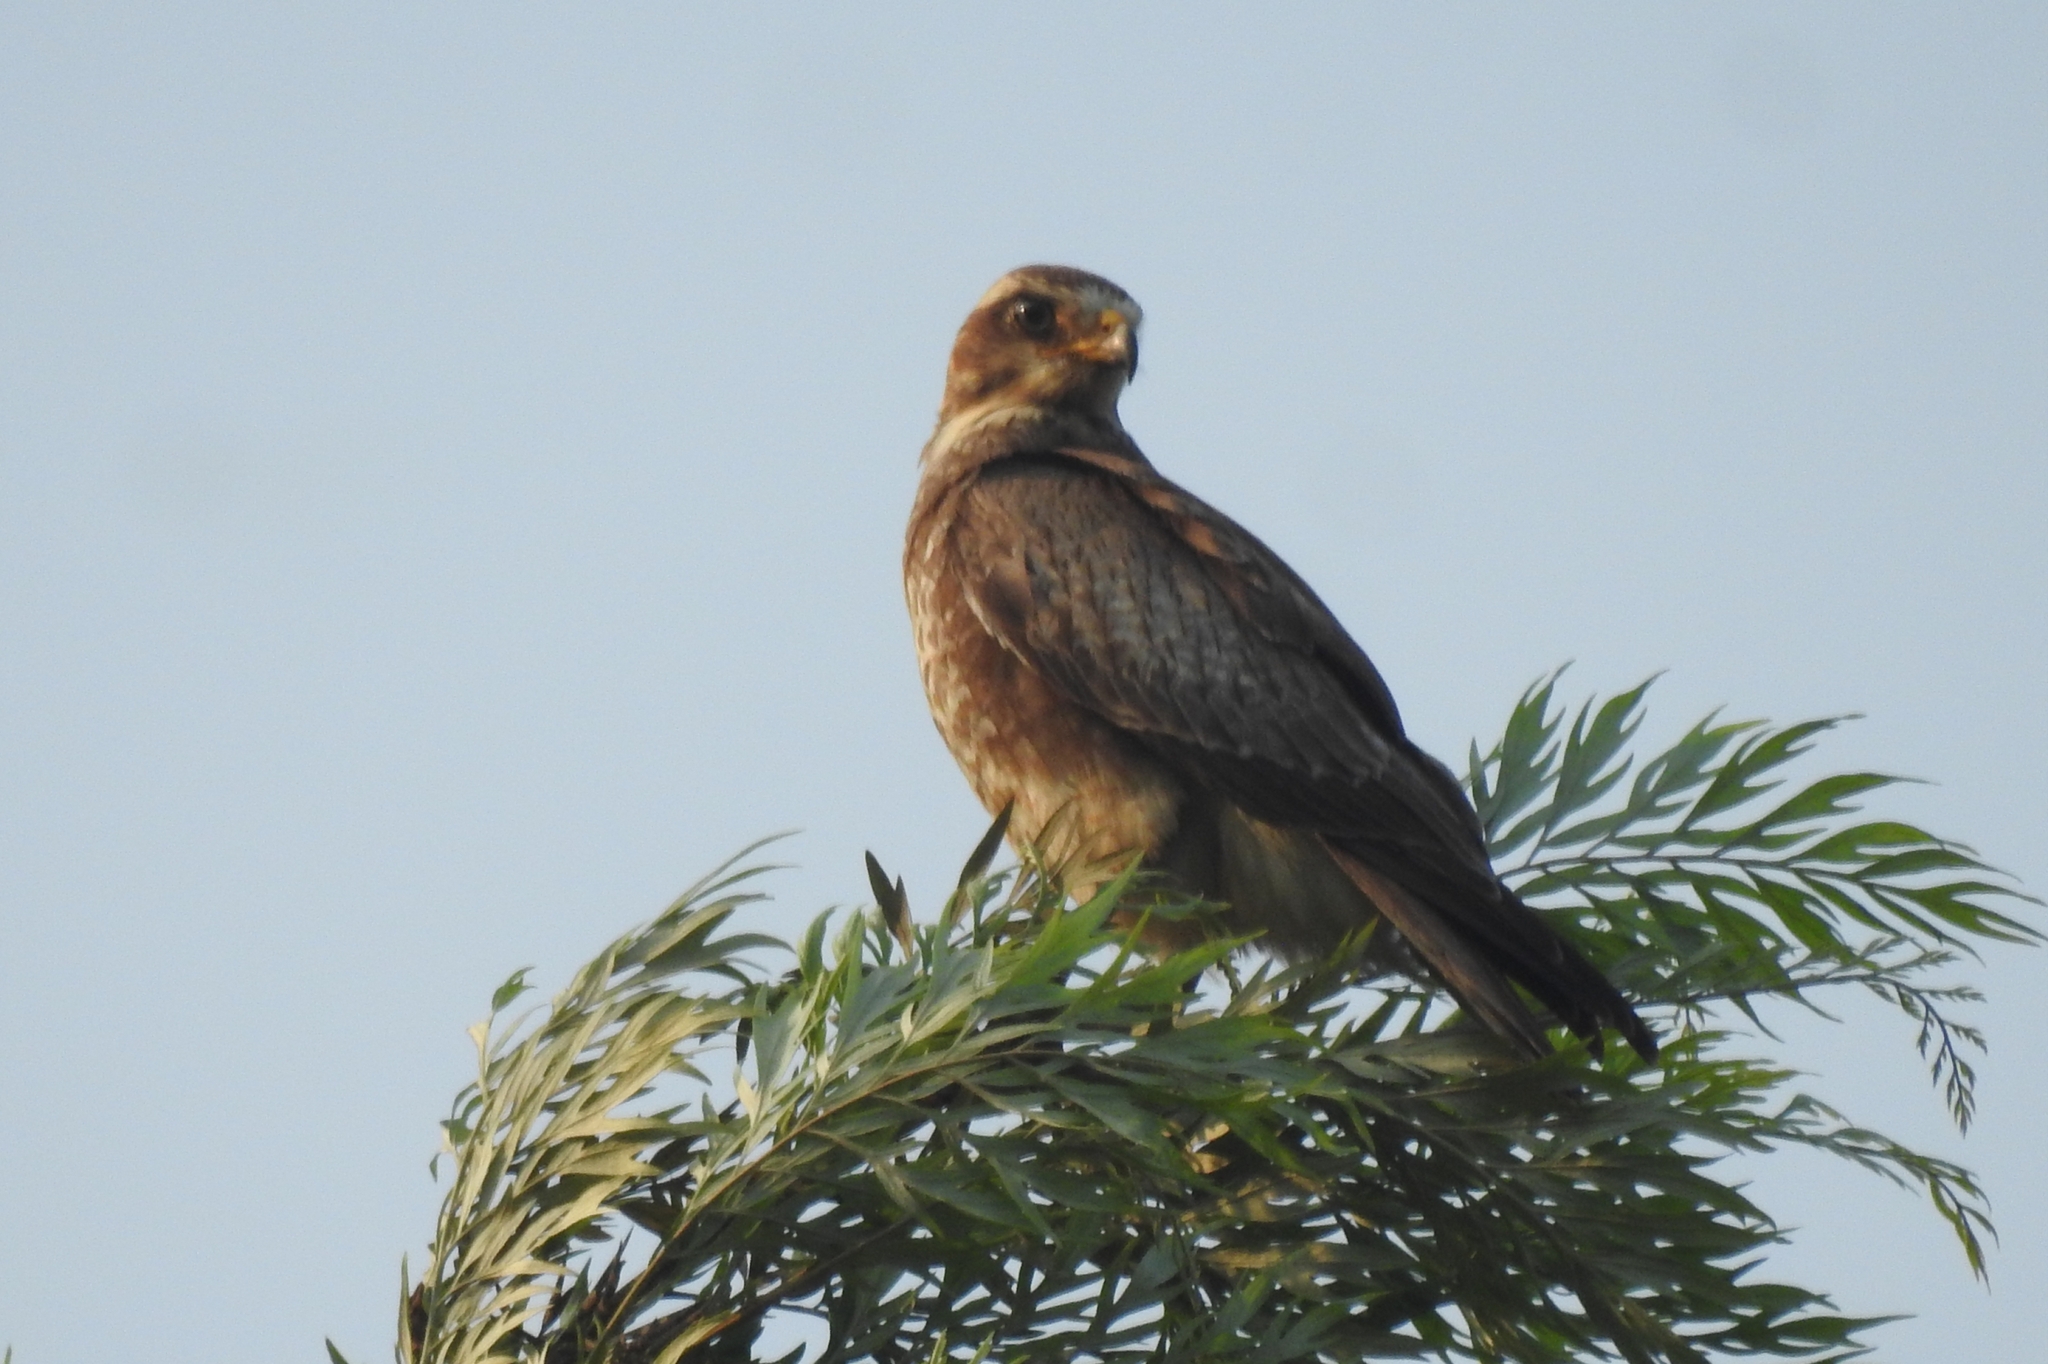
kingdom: Animalia
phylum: Chordata
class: Aves
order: Accipitriformes
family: Accipitridae
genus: Butastur
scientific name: Butastur teesa
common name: White-eyed buzzard
